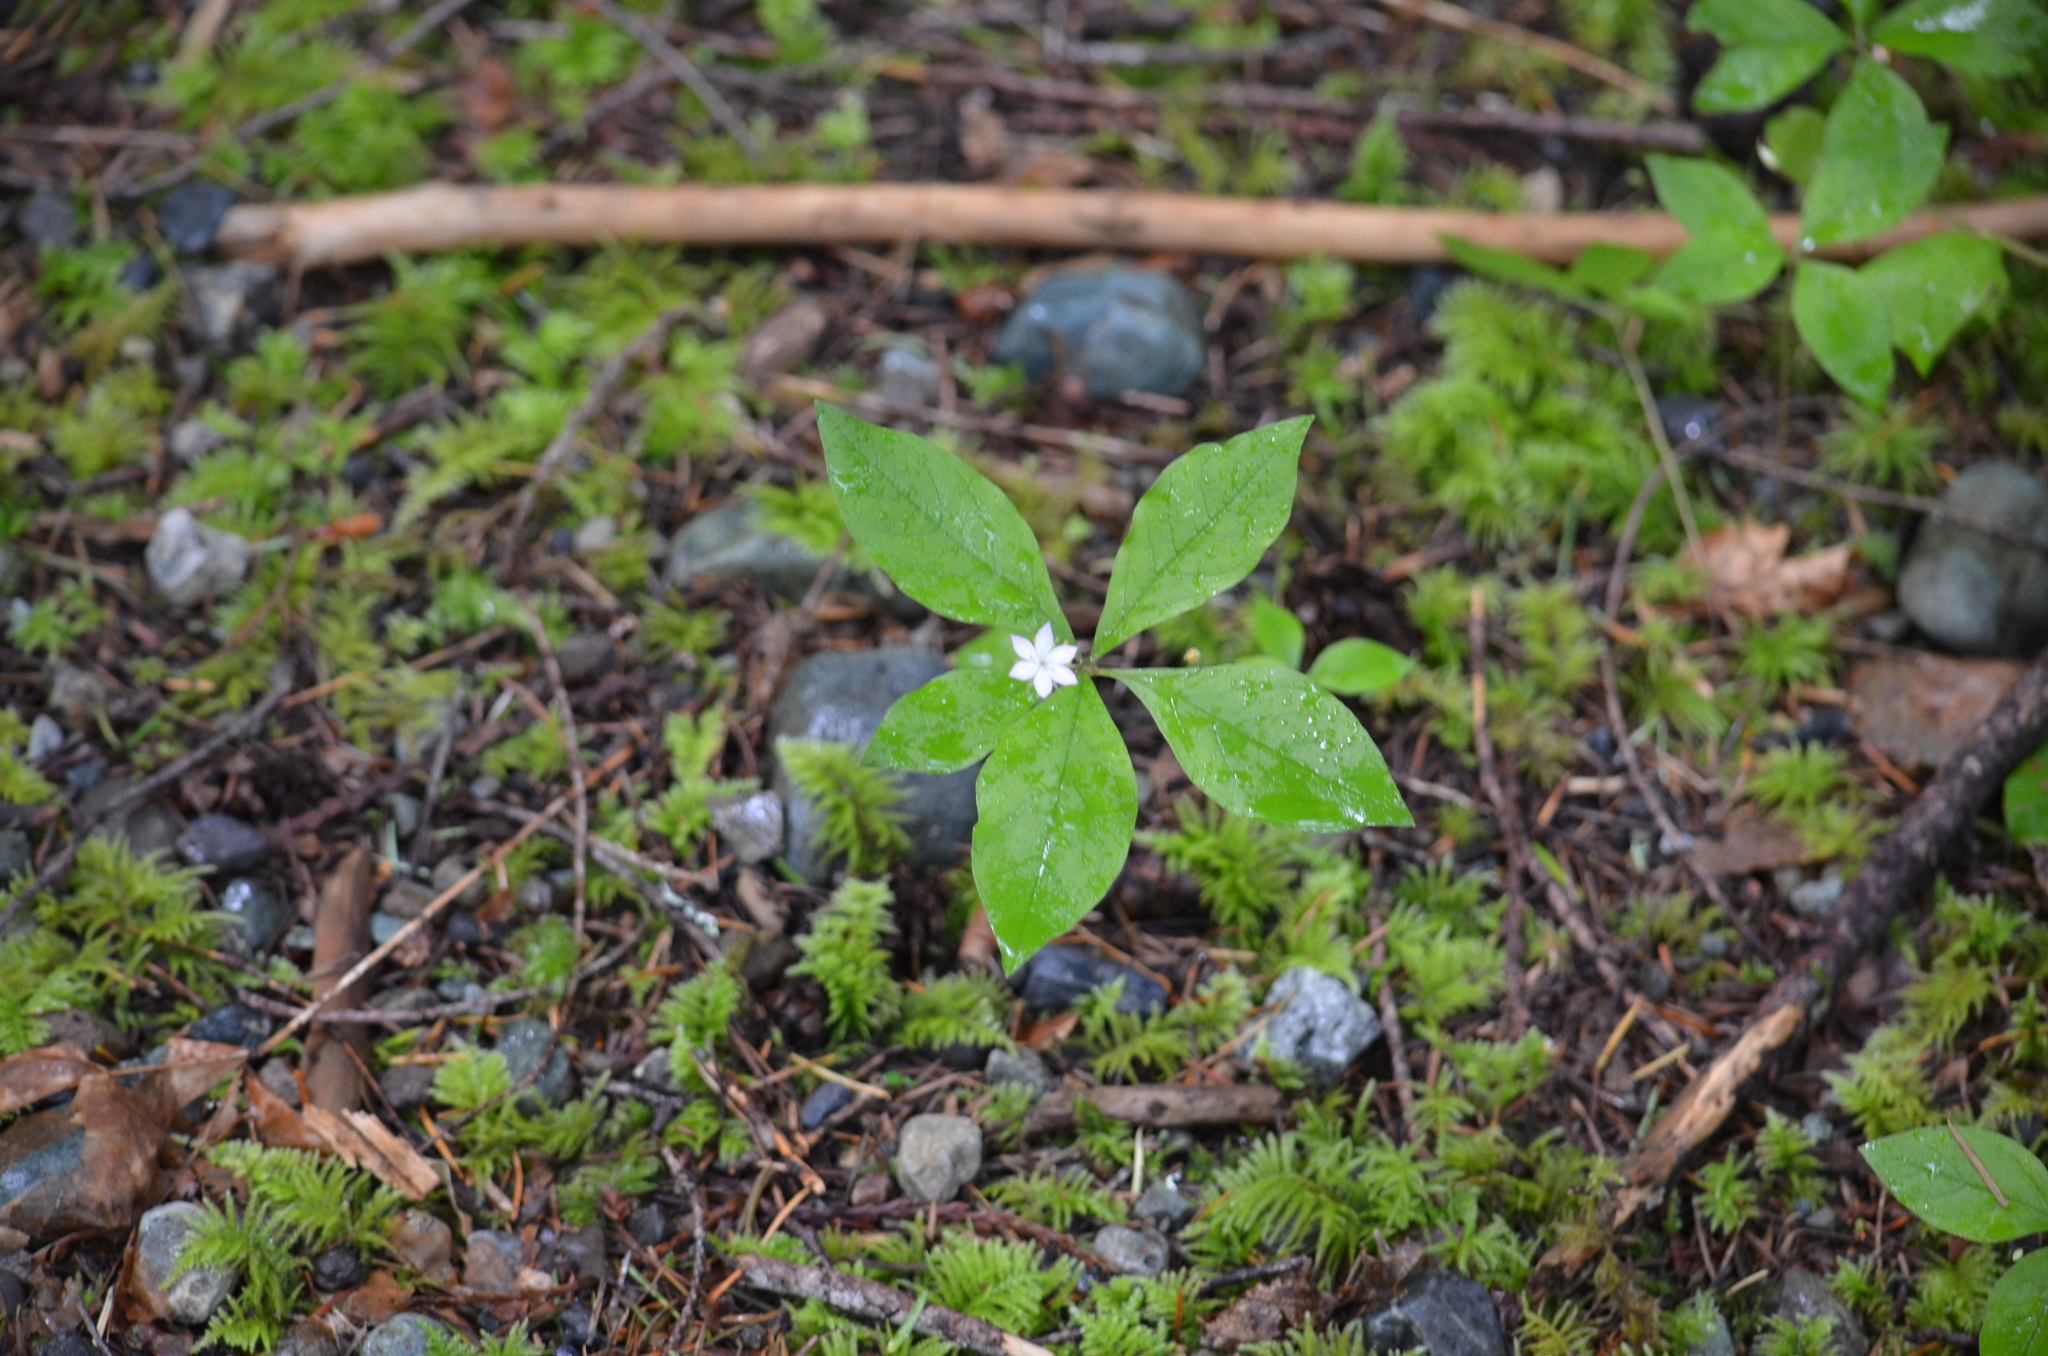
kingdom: Plantae
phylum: Tracheophyta
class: Magnoliopsida
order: Ericales
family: Primulaceae
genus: Lysimachia
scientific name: Lysimachia latifolia
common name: Pacific starflower
